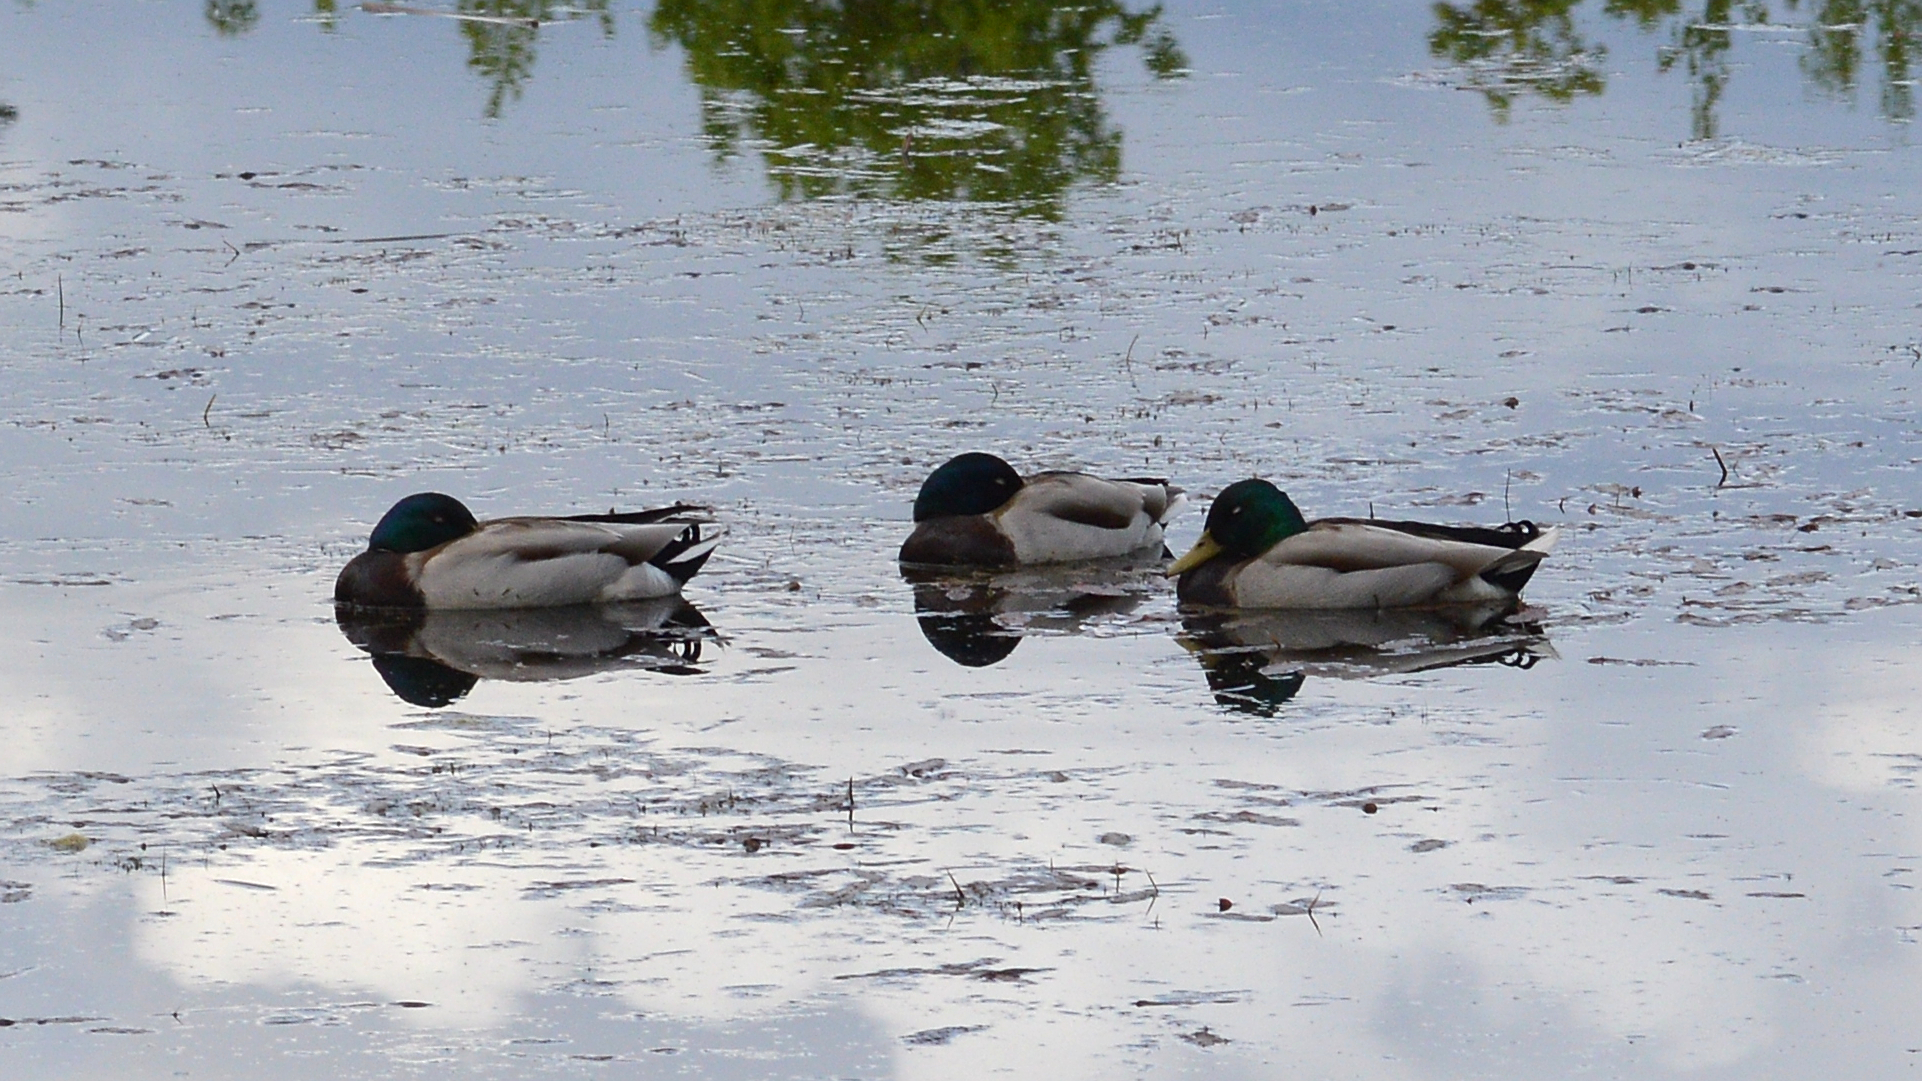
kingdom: Animalia
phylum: Chordata
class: Aves
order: Anseriformes
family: Anatidae
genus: Anas
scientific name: Anas platyrhynchos
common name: Mallard
